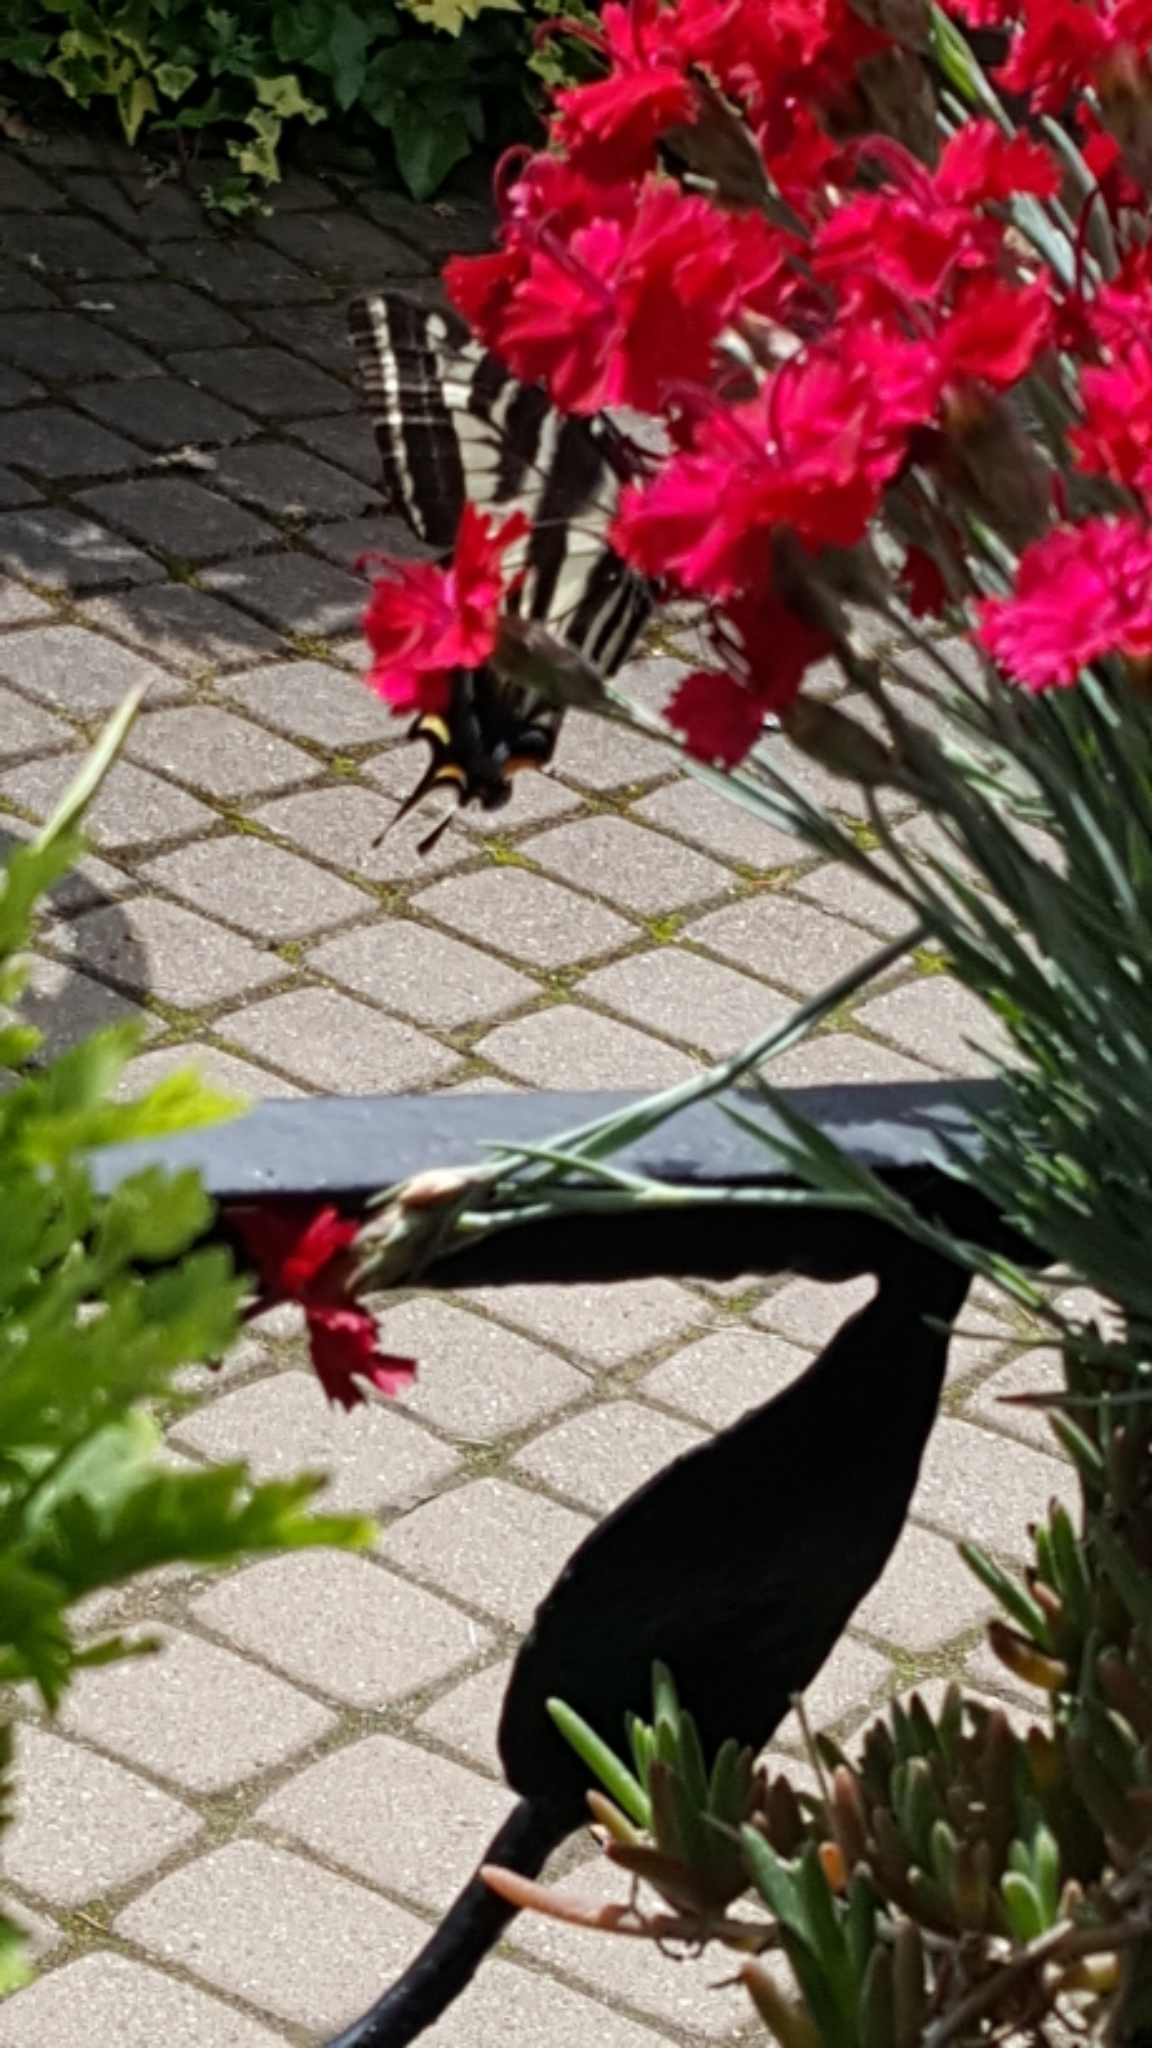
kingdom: Animalia
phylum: Arthropoda
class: Insecta
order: Lepidoptera
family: Papilionidae
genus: Papilio
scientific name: Papilio eurymedon
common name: Pale tiger swallowtail
